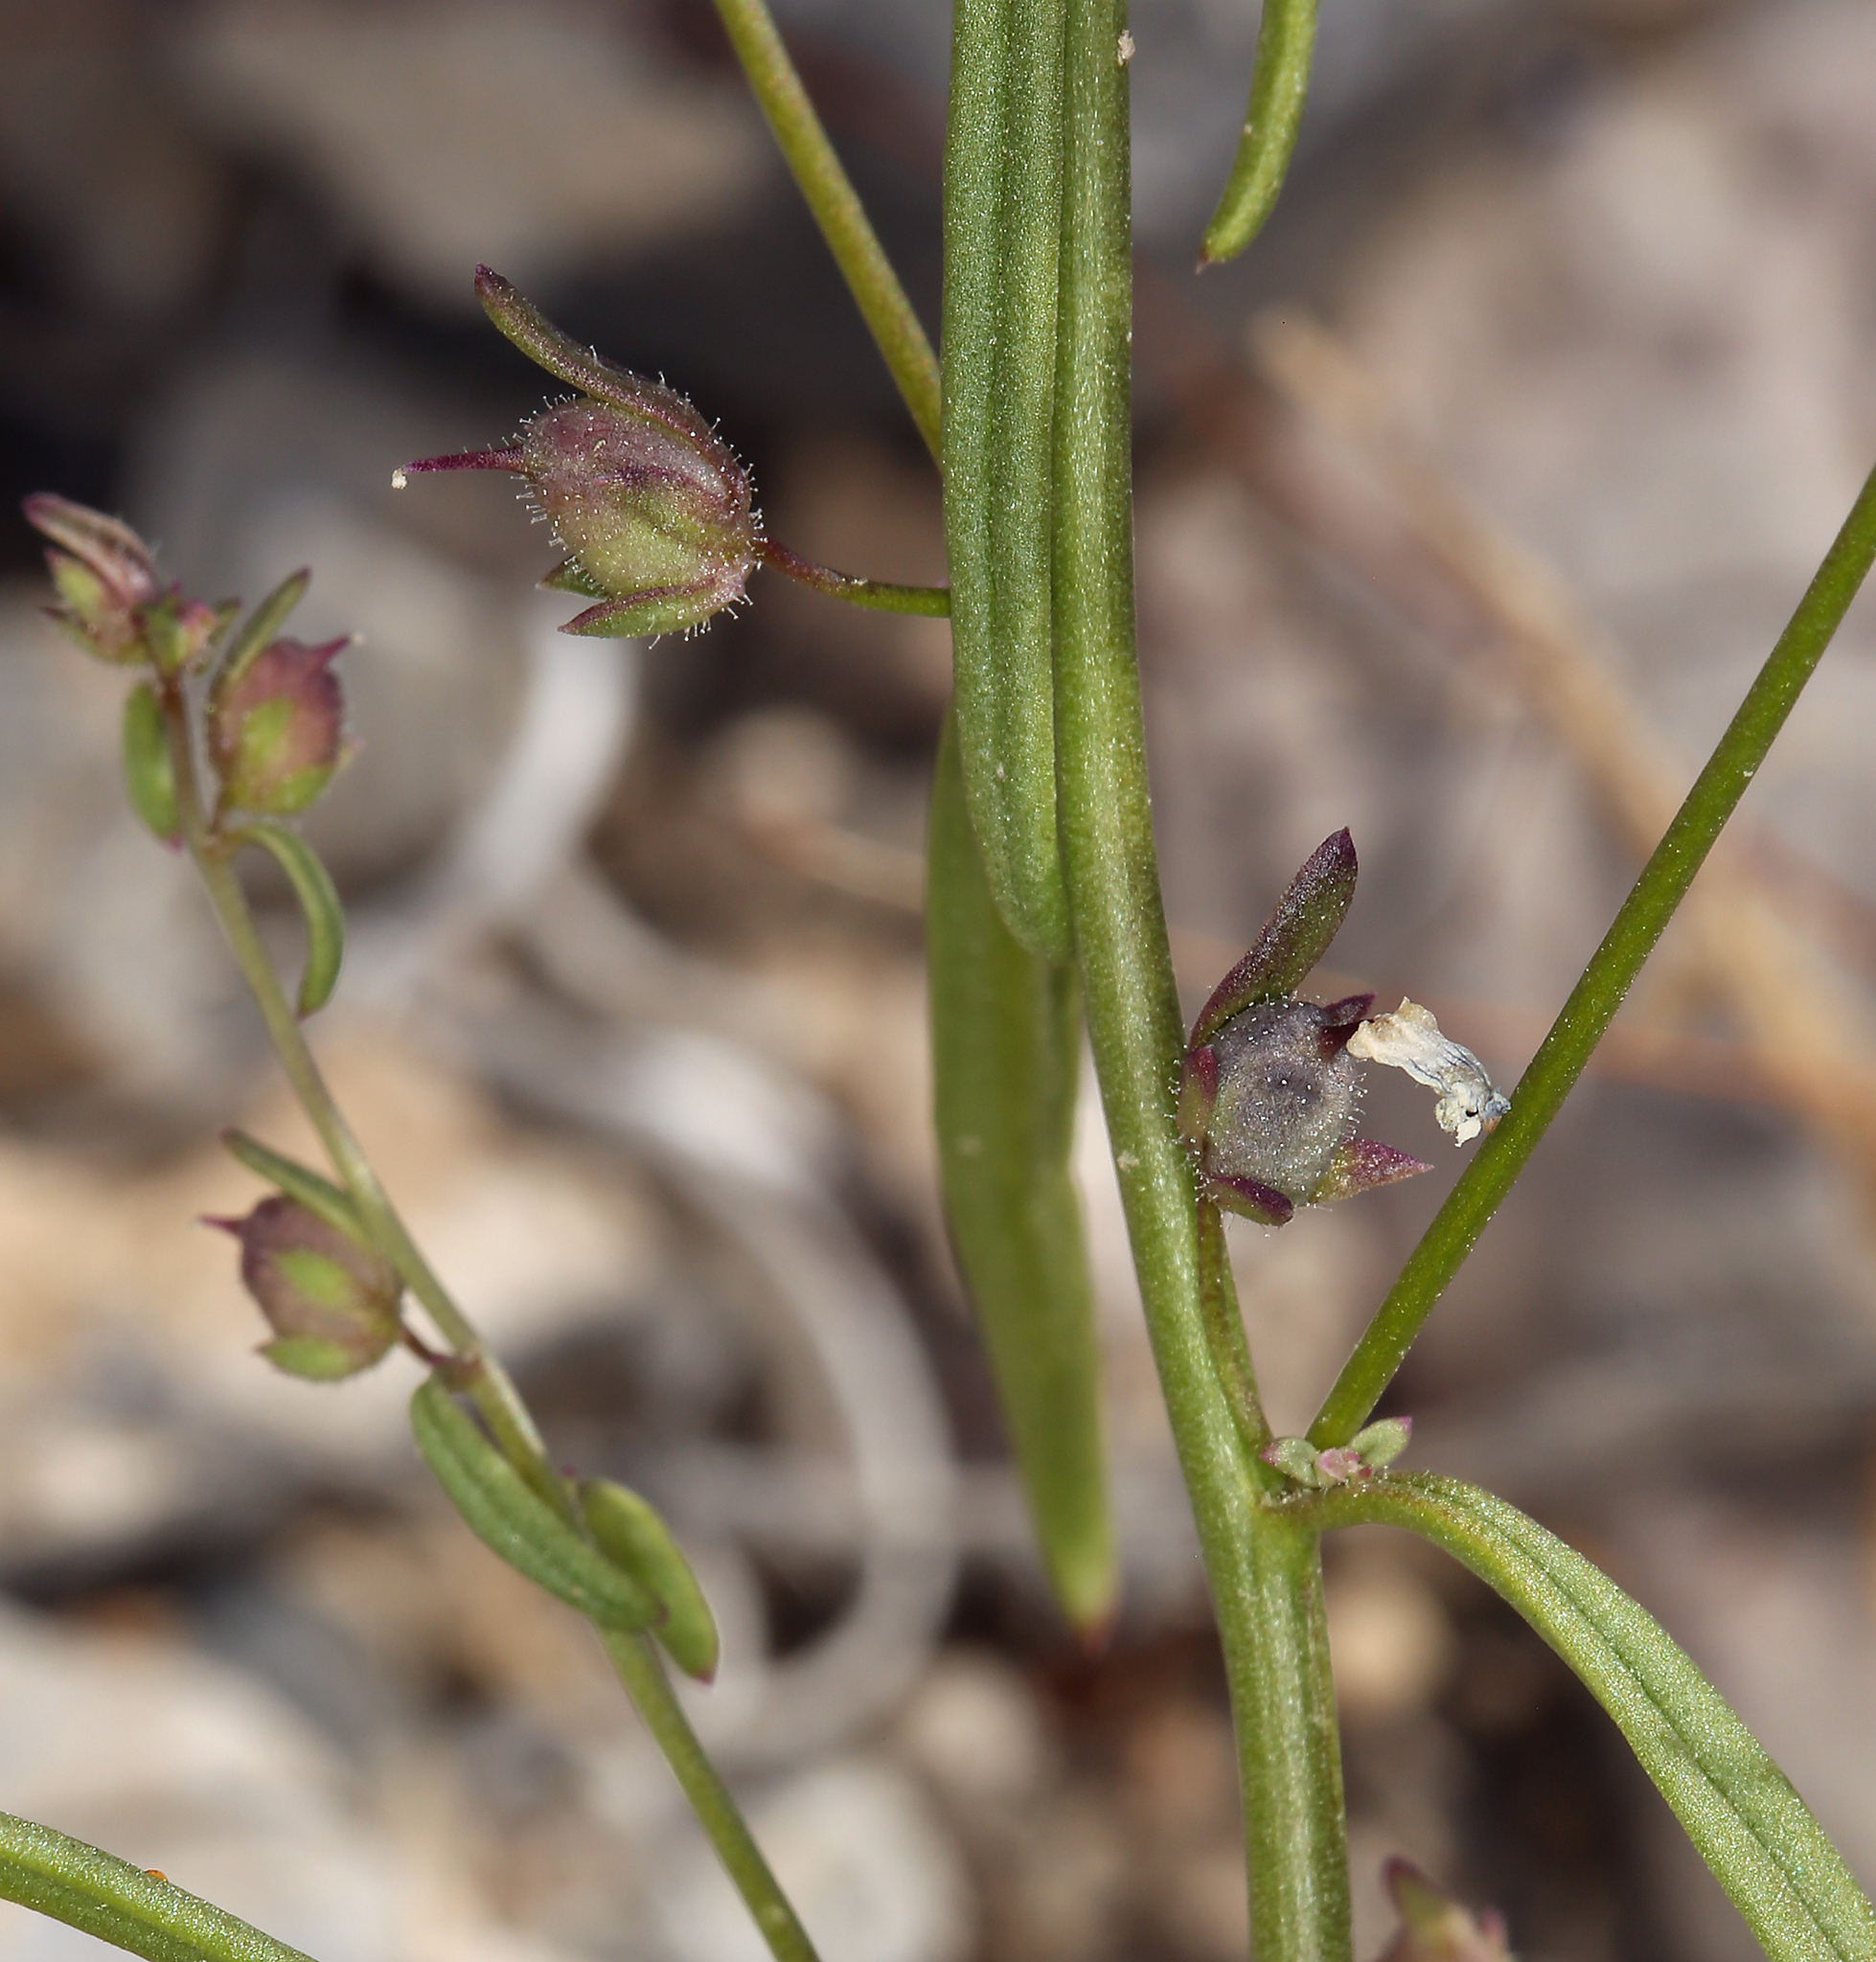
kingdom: Plantae
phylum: Tracheophyta
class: Magnoliopsida
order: Lamiales
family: Plantaginaceae
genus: Sairocarpus
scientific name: Sairocarpus kingii
